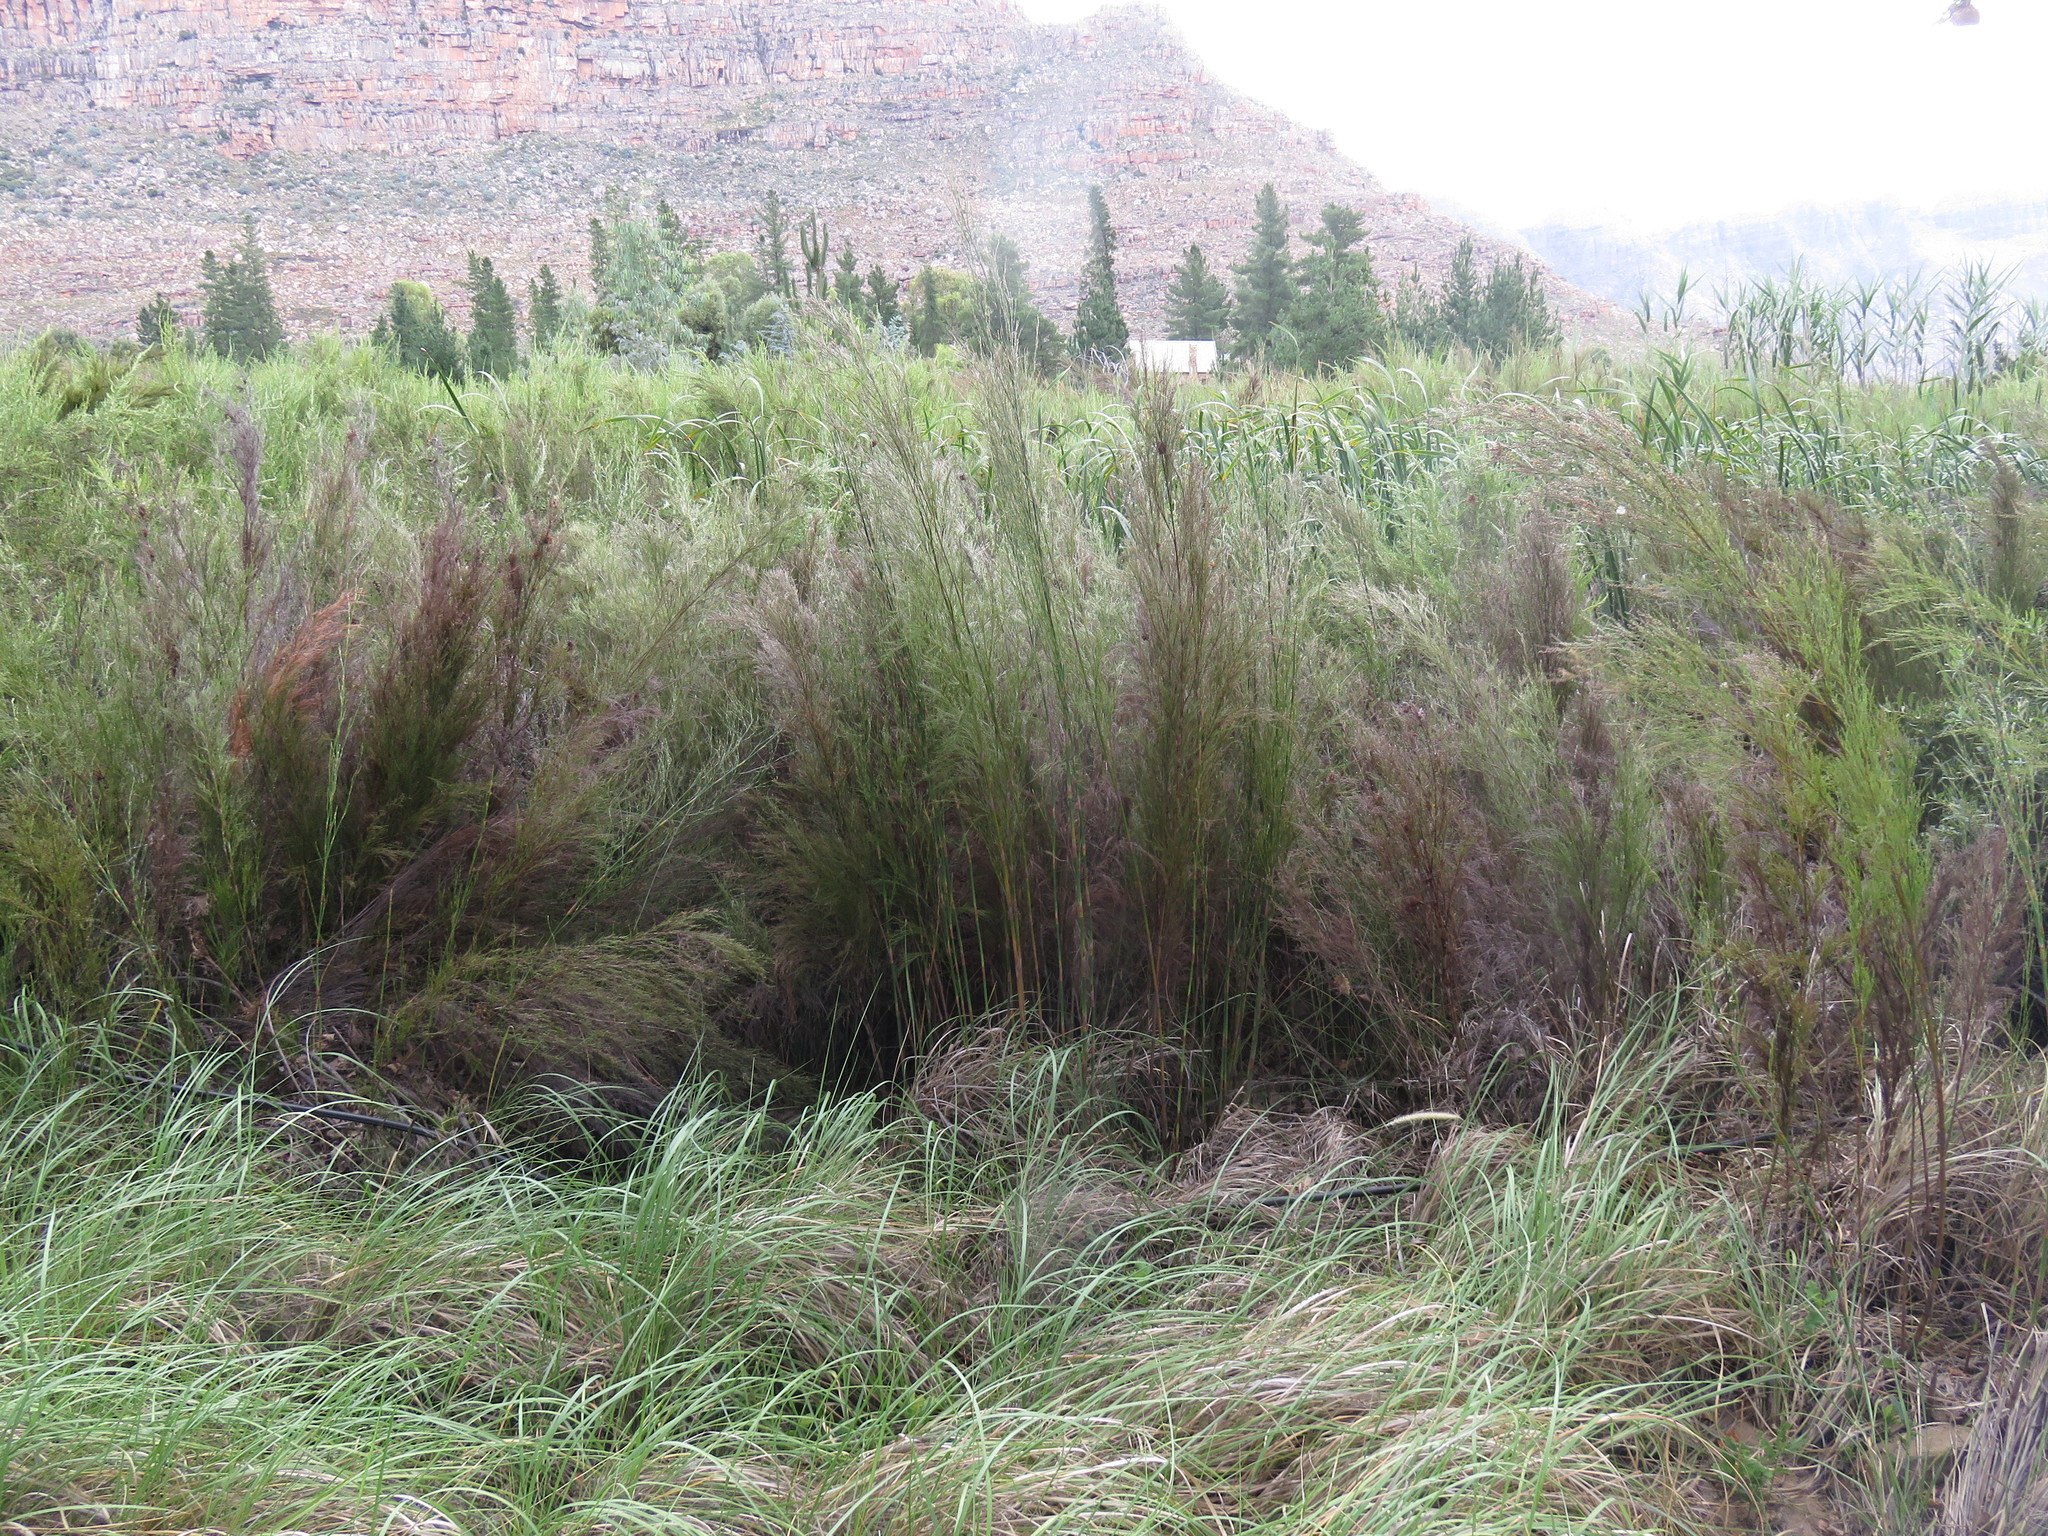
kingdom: Plantae
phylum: Tracheophyta
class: Liliopsida
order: Poales
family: Restionaceae
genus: Restio
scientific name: Restio paniculatus
